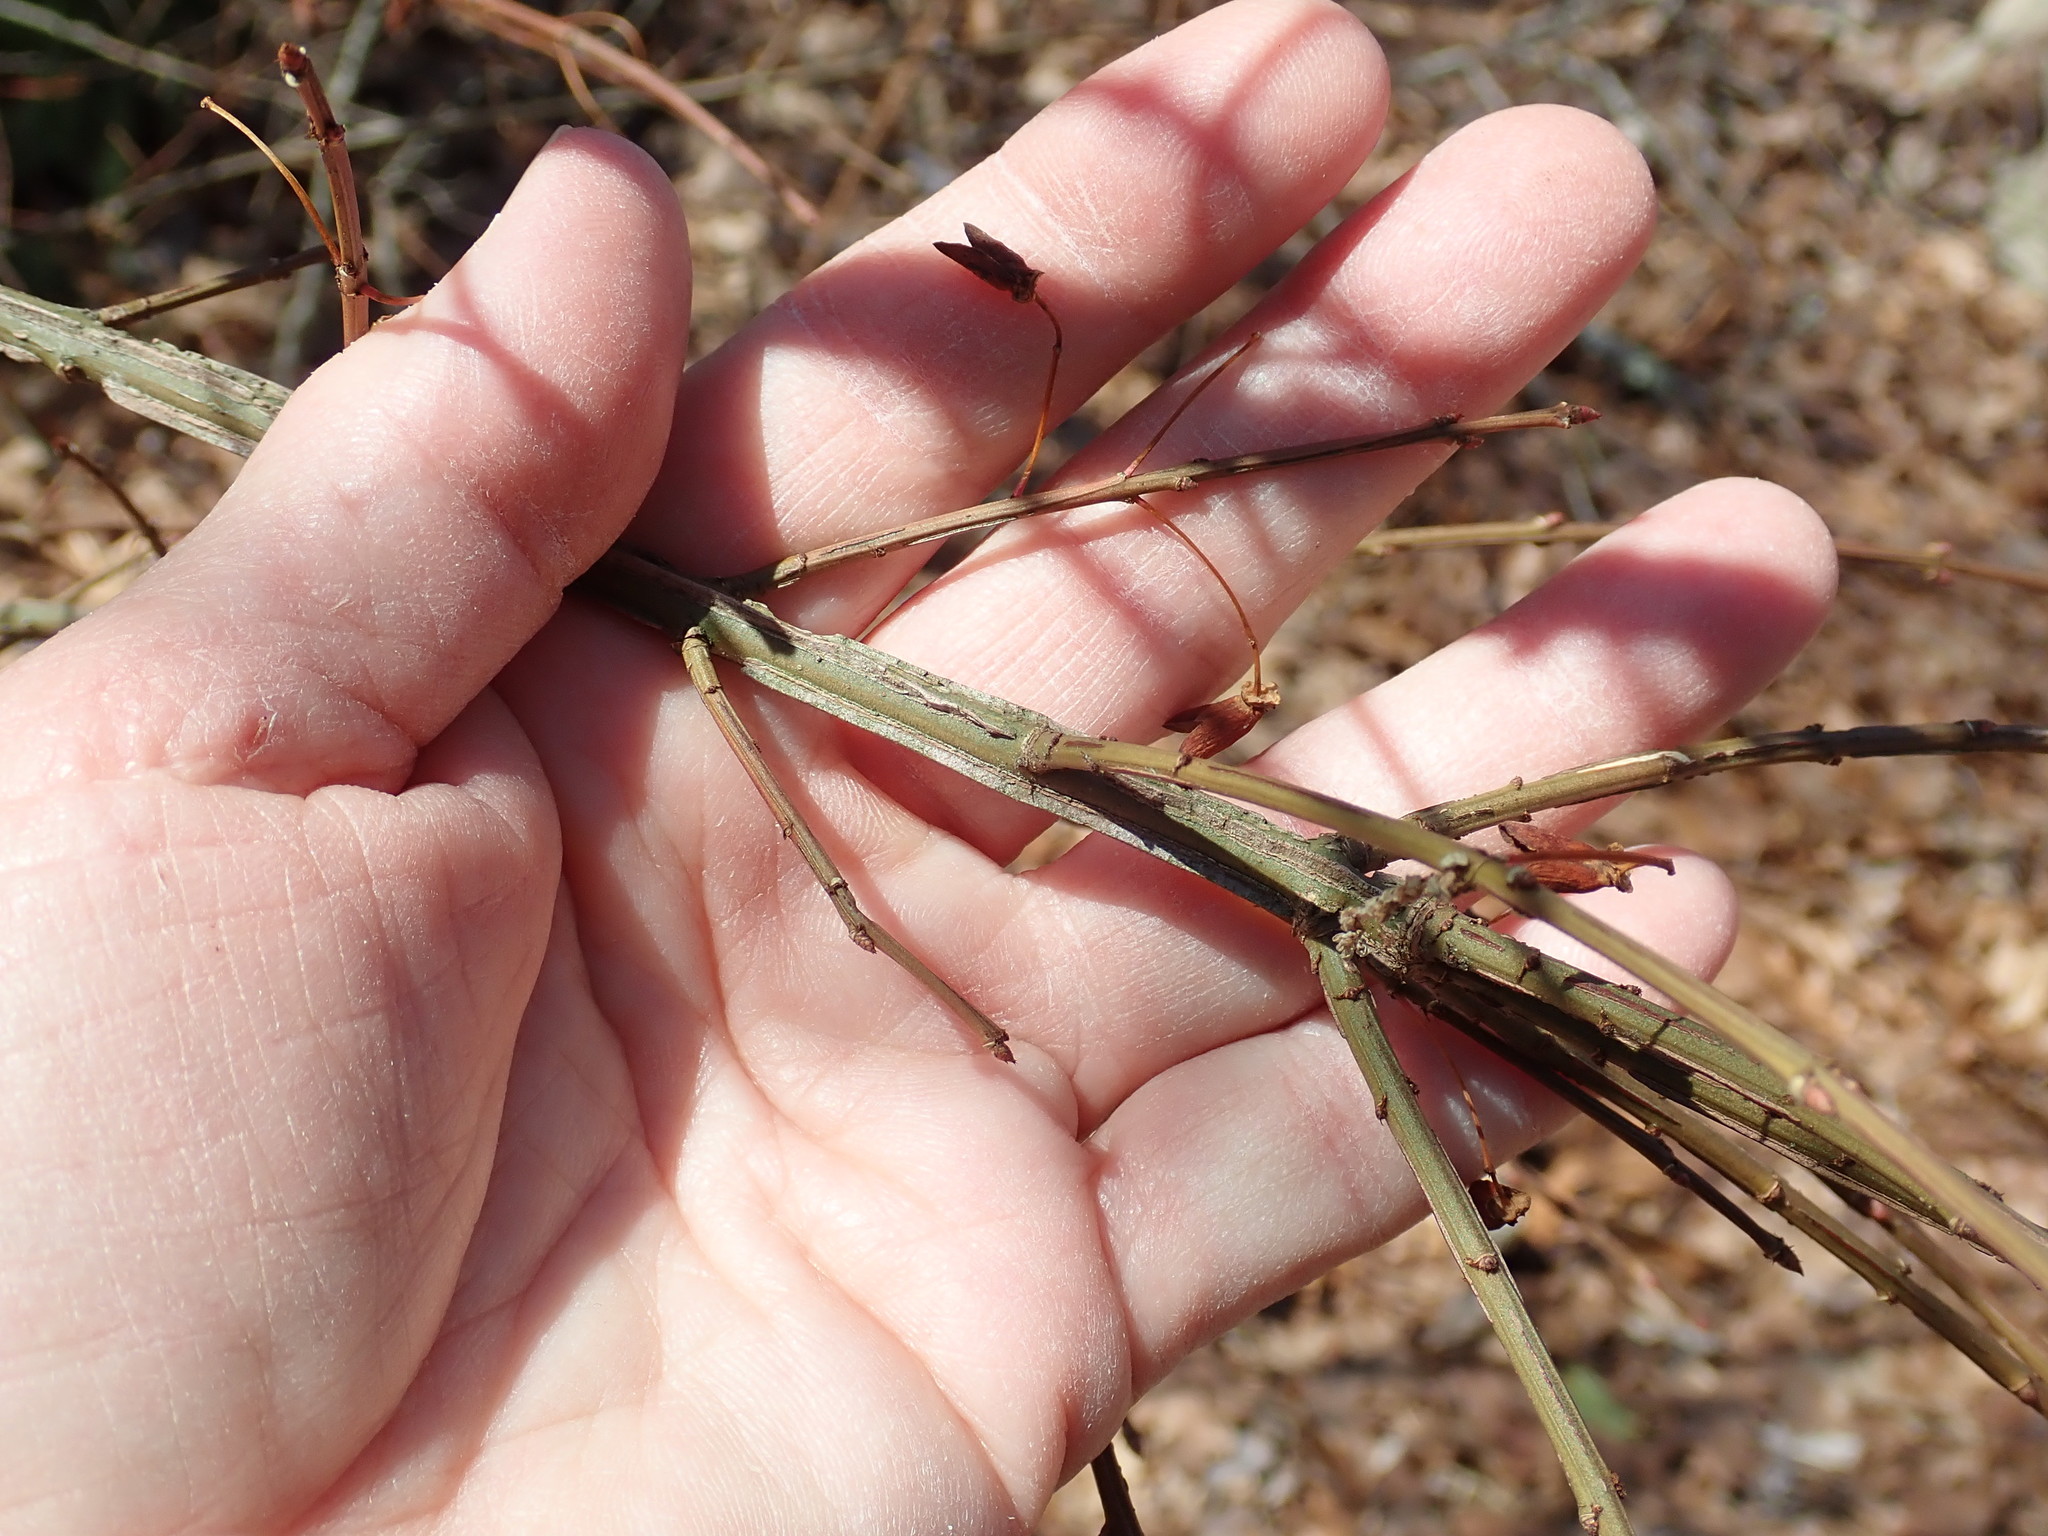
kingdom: Plantae
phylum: Tracheophyta
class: Magnoliopsida
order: Celastrales
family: Celastraceae
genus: Euonymus
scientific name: Euonymus alatus
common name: Winged euonymus
